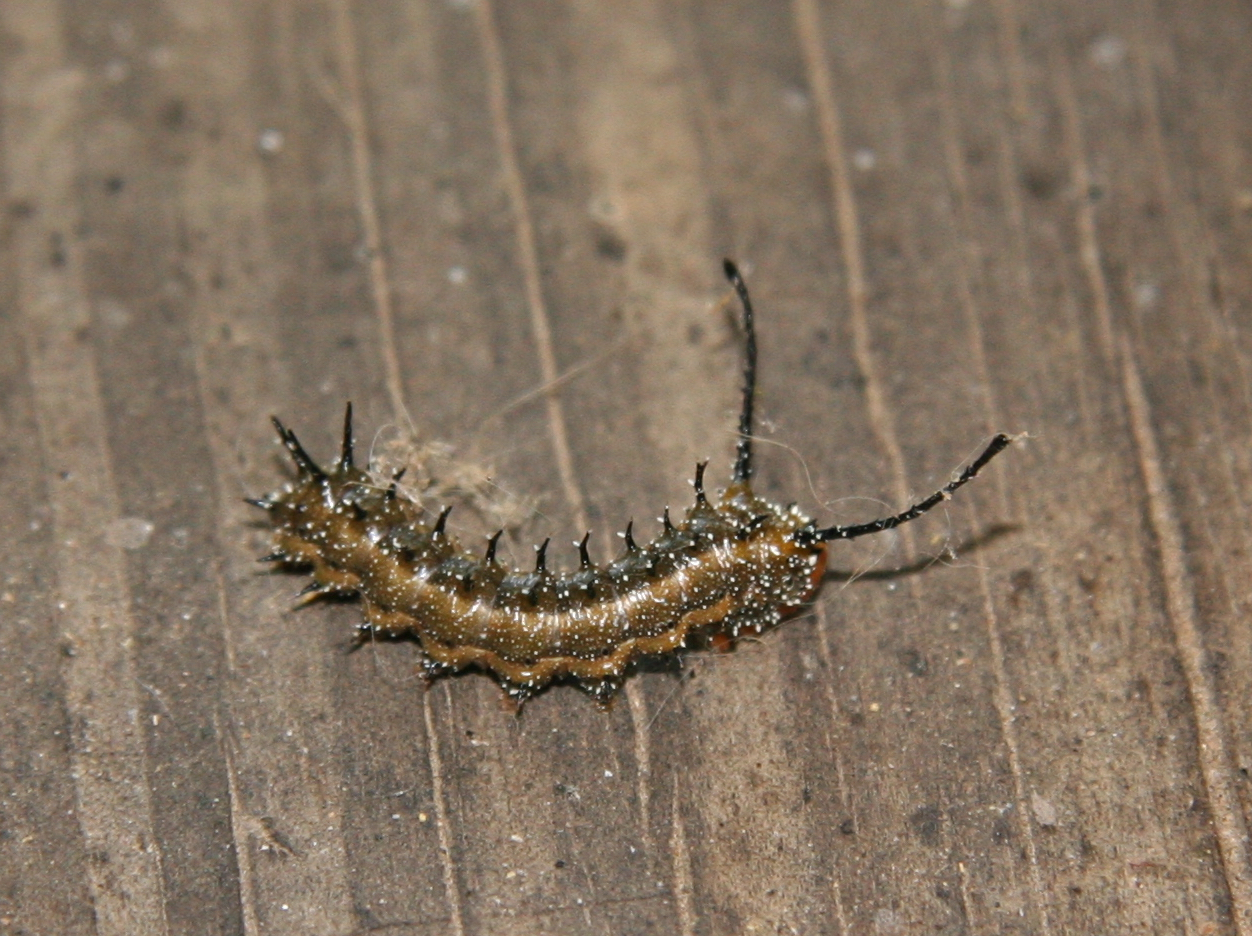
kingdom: Animalia
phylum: Arthropoda
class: Insecta
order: Lepidoptera
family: Saturniidae
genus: Anisota
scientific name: Anisota stigma
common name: Spiny oakworm moth
